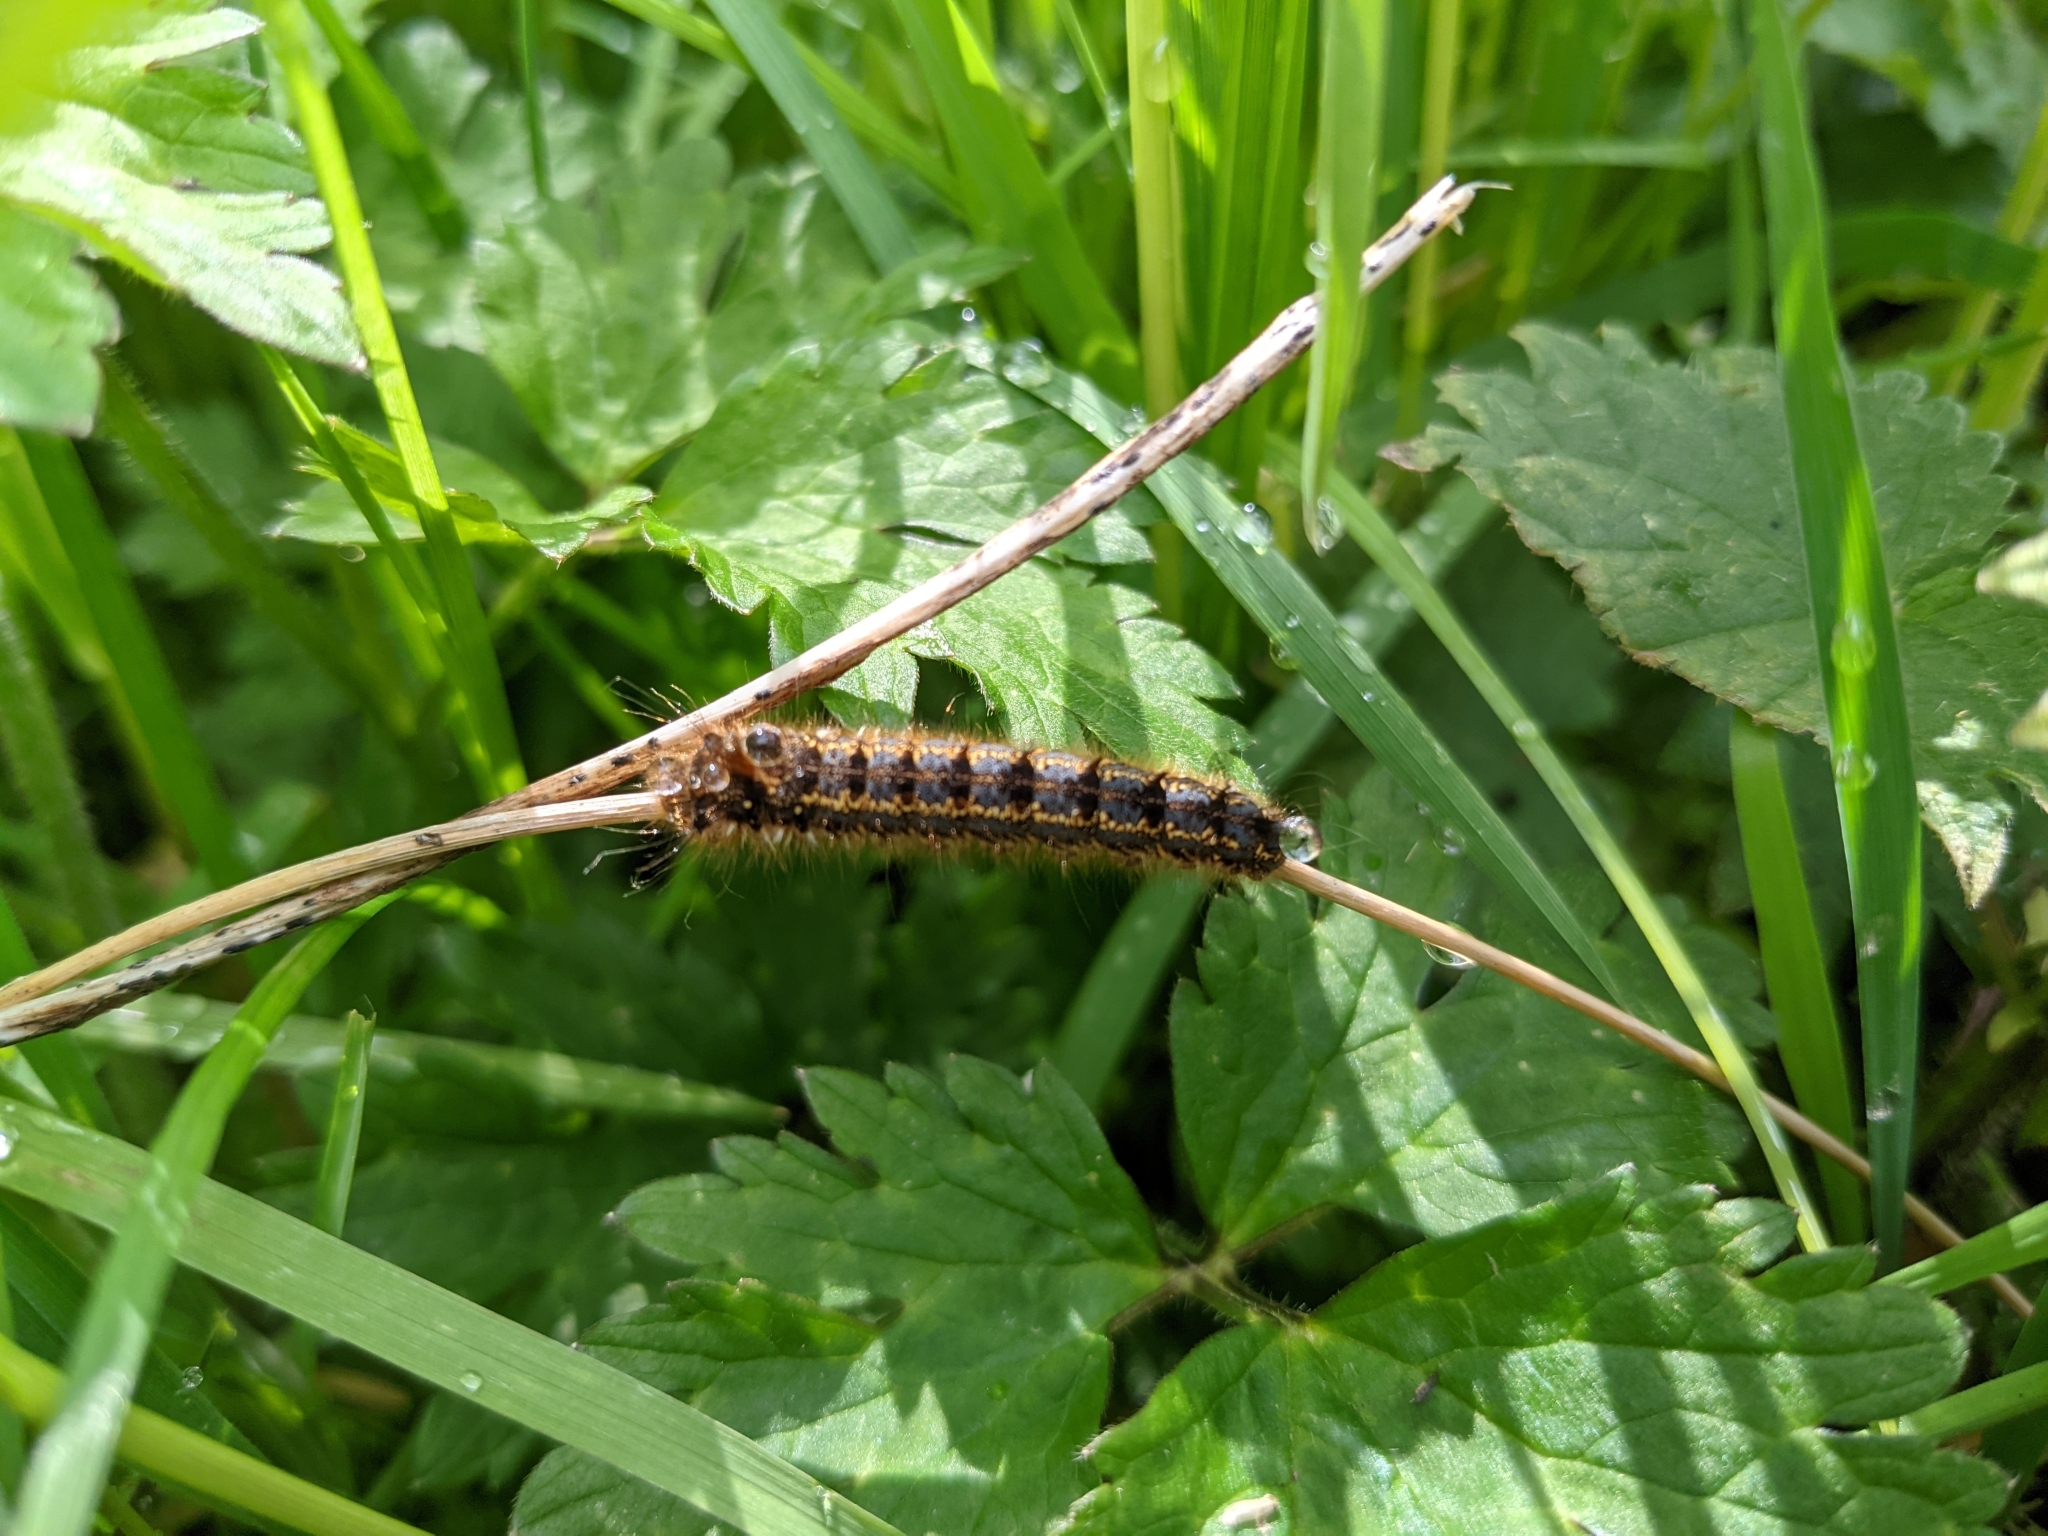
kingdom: Animalia
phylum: Arthropoda
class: Insecta
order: Lepidoptera
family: Lasiocampidae
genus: Euthrix
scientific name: Euthrix potatoria
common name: Drinker
